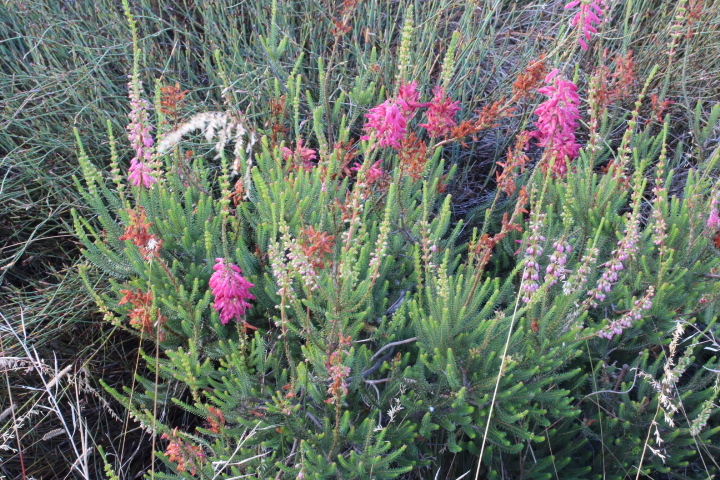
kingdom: Plantae
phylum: Tracheophyta
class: Magnoliopsida
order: Ericales
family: Ericaceae
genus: Erica
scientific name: Erica mammosa
